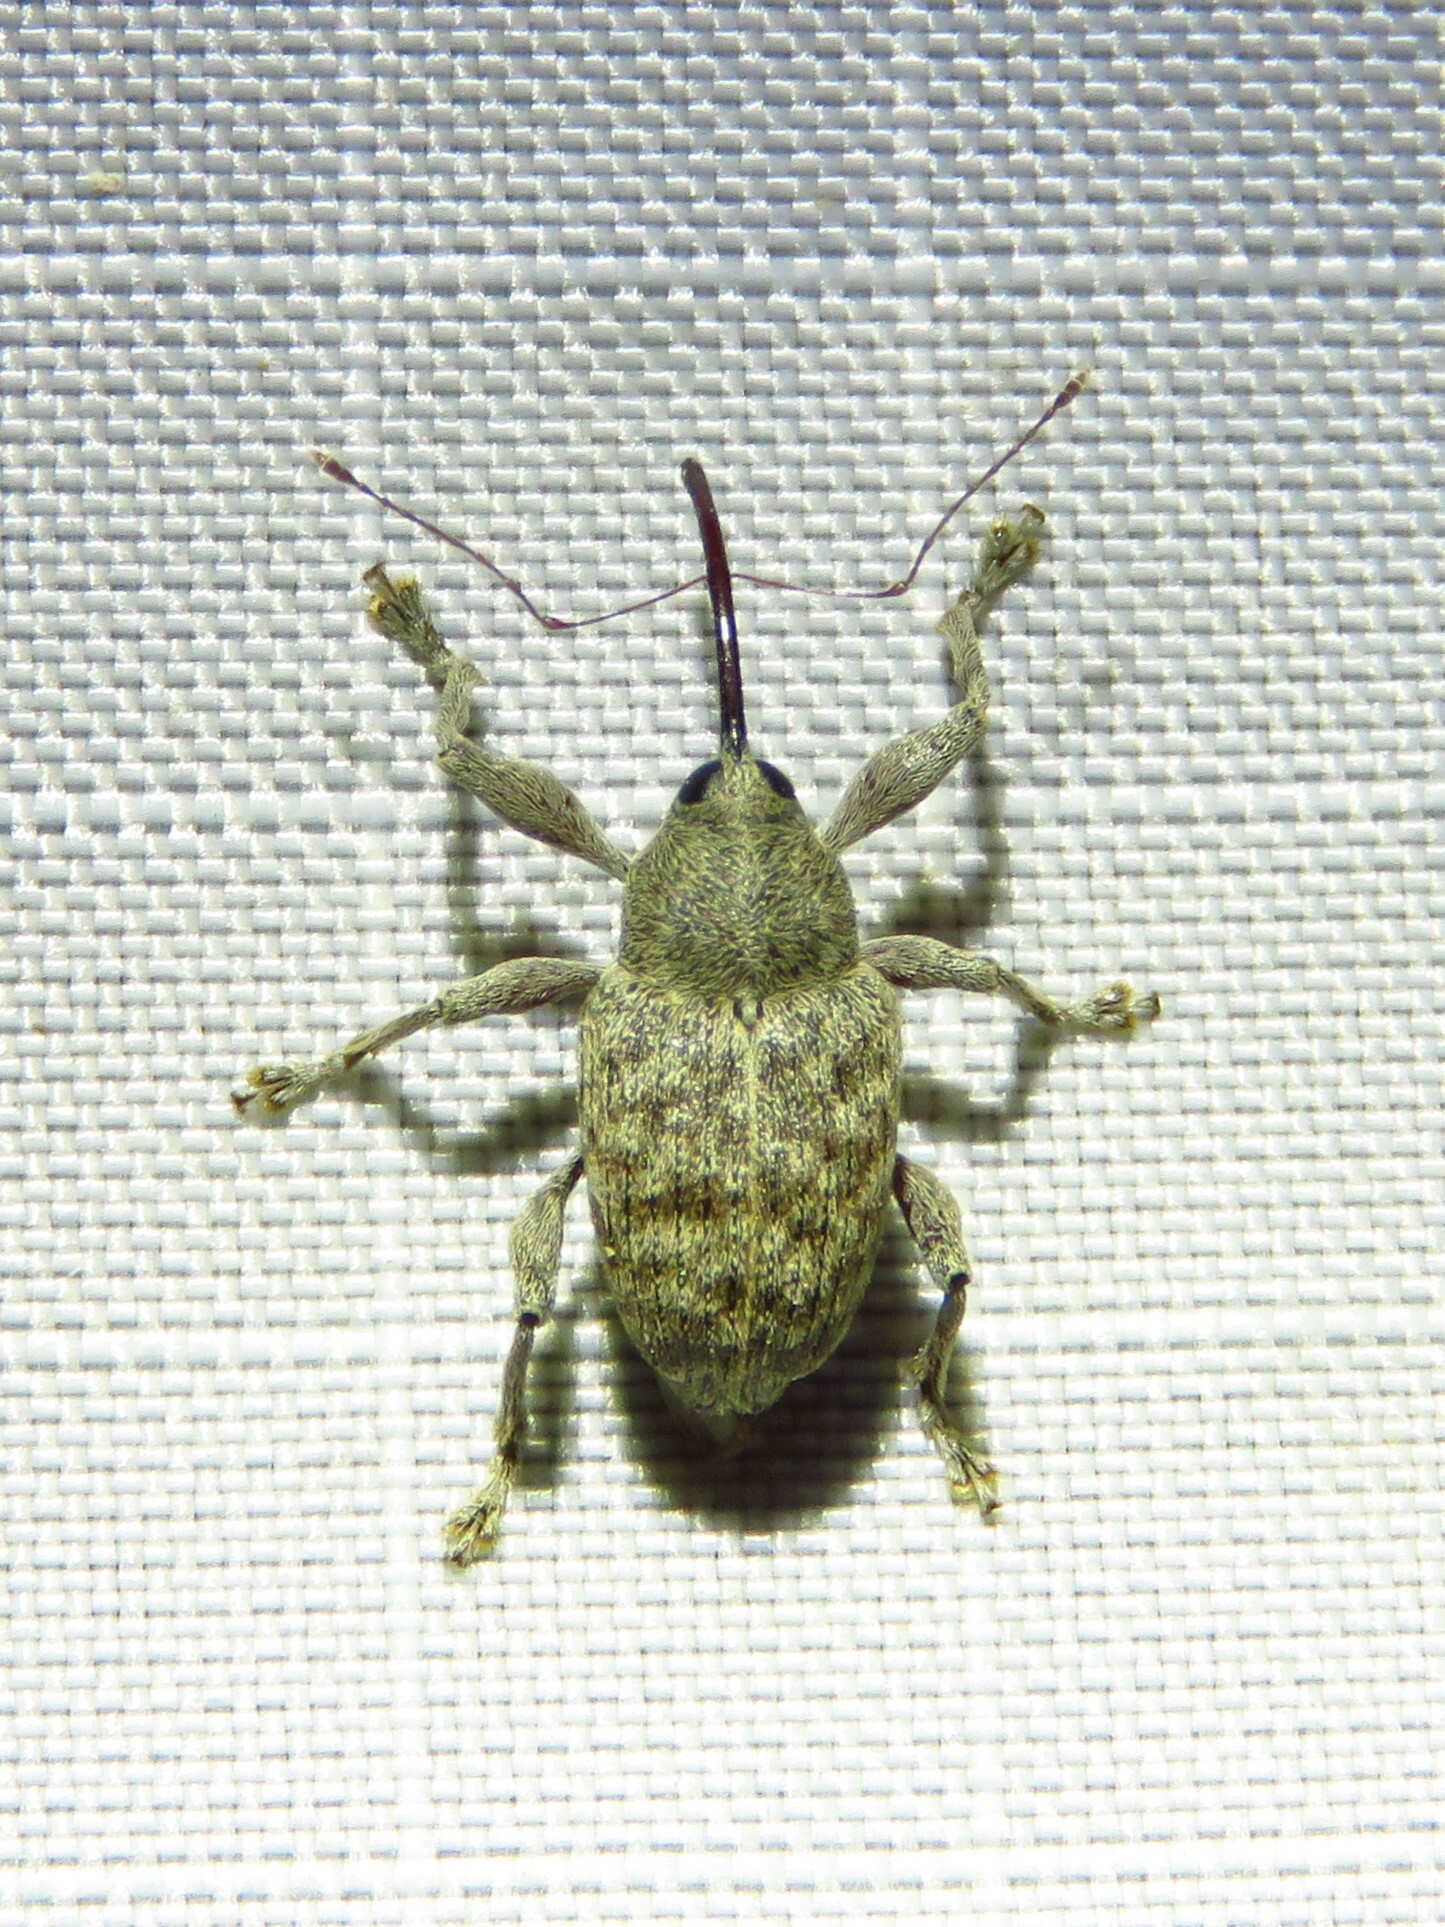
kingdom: Animalia
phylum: Arthropoda
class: Insecta
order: Coleoptera
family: Curculionidae
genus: Curculio
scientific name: Curculio
